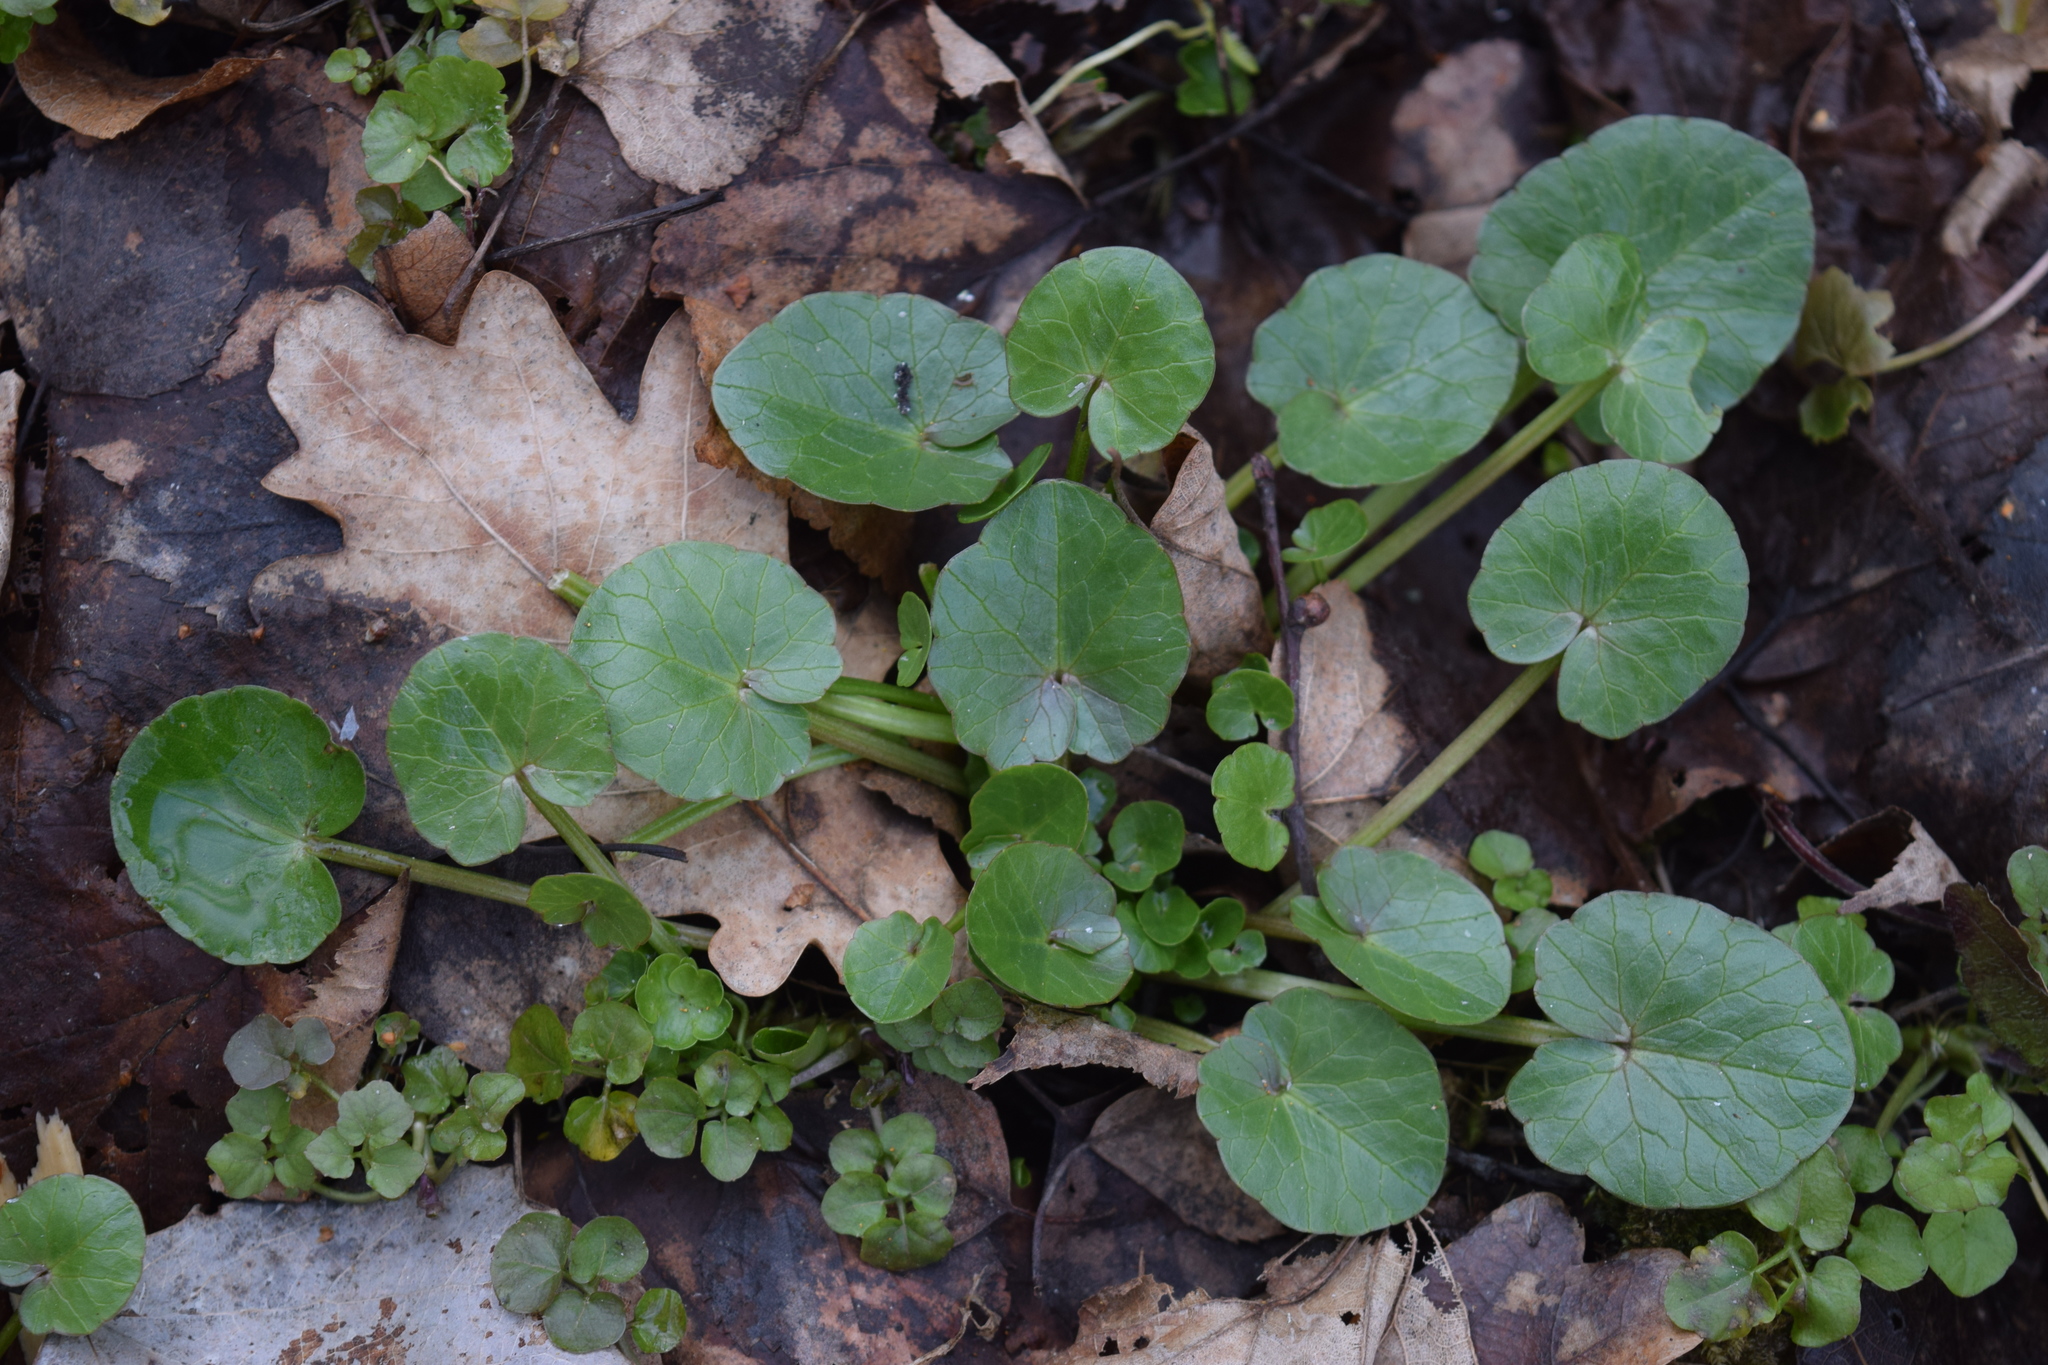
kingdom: Plantae
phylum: Tracheophyta
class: Magnoliopsida
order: Ranunculales
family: Ranunculaceae
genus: Ficaria
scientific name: Ficaria verna
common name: Lesser celandine
